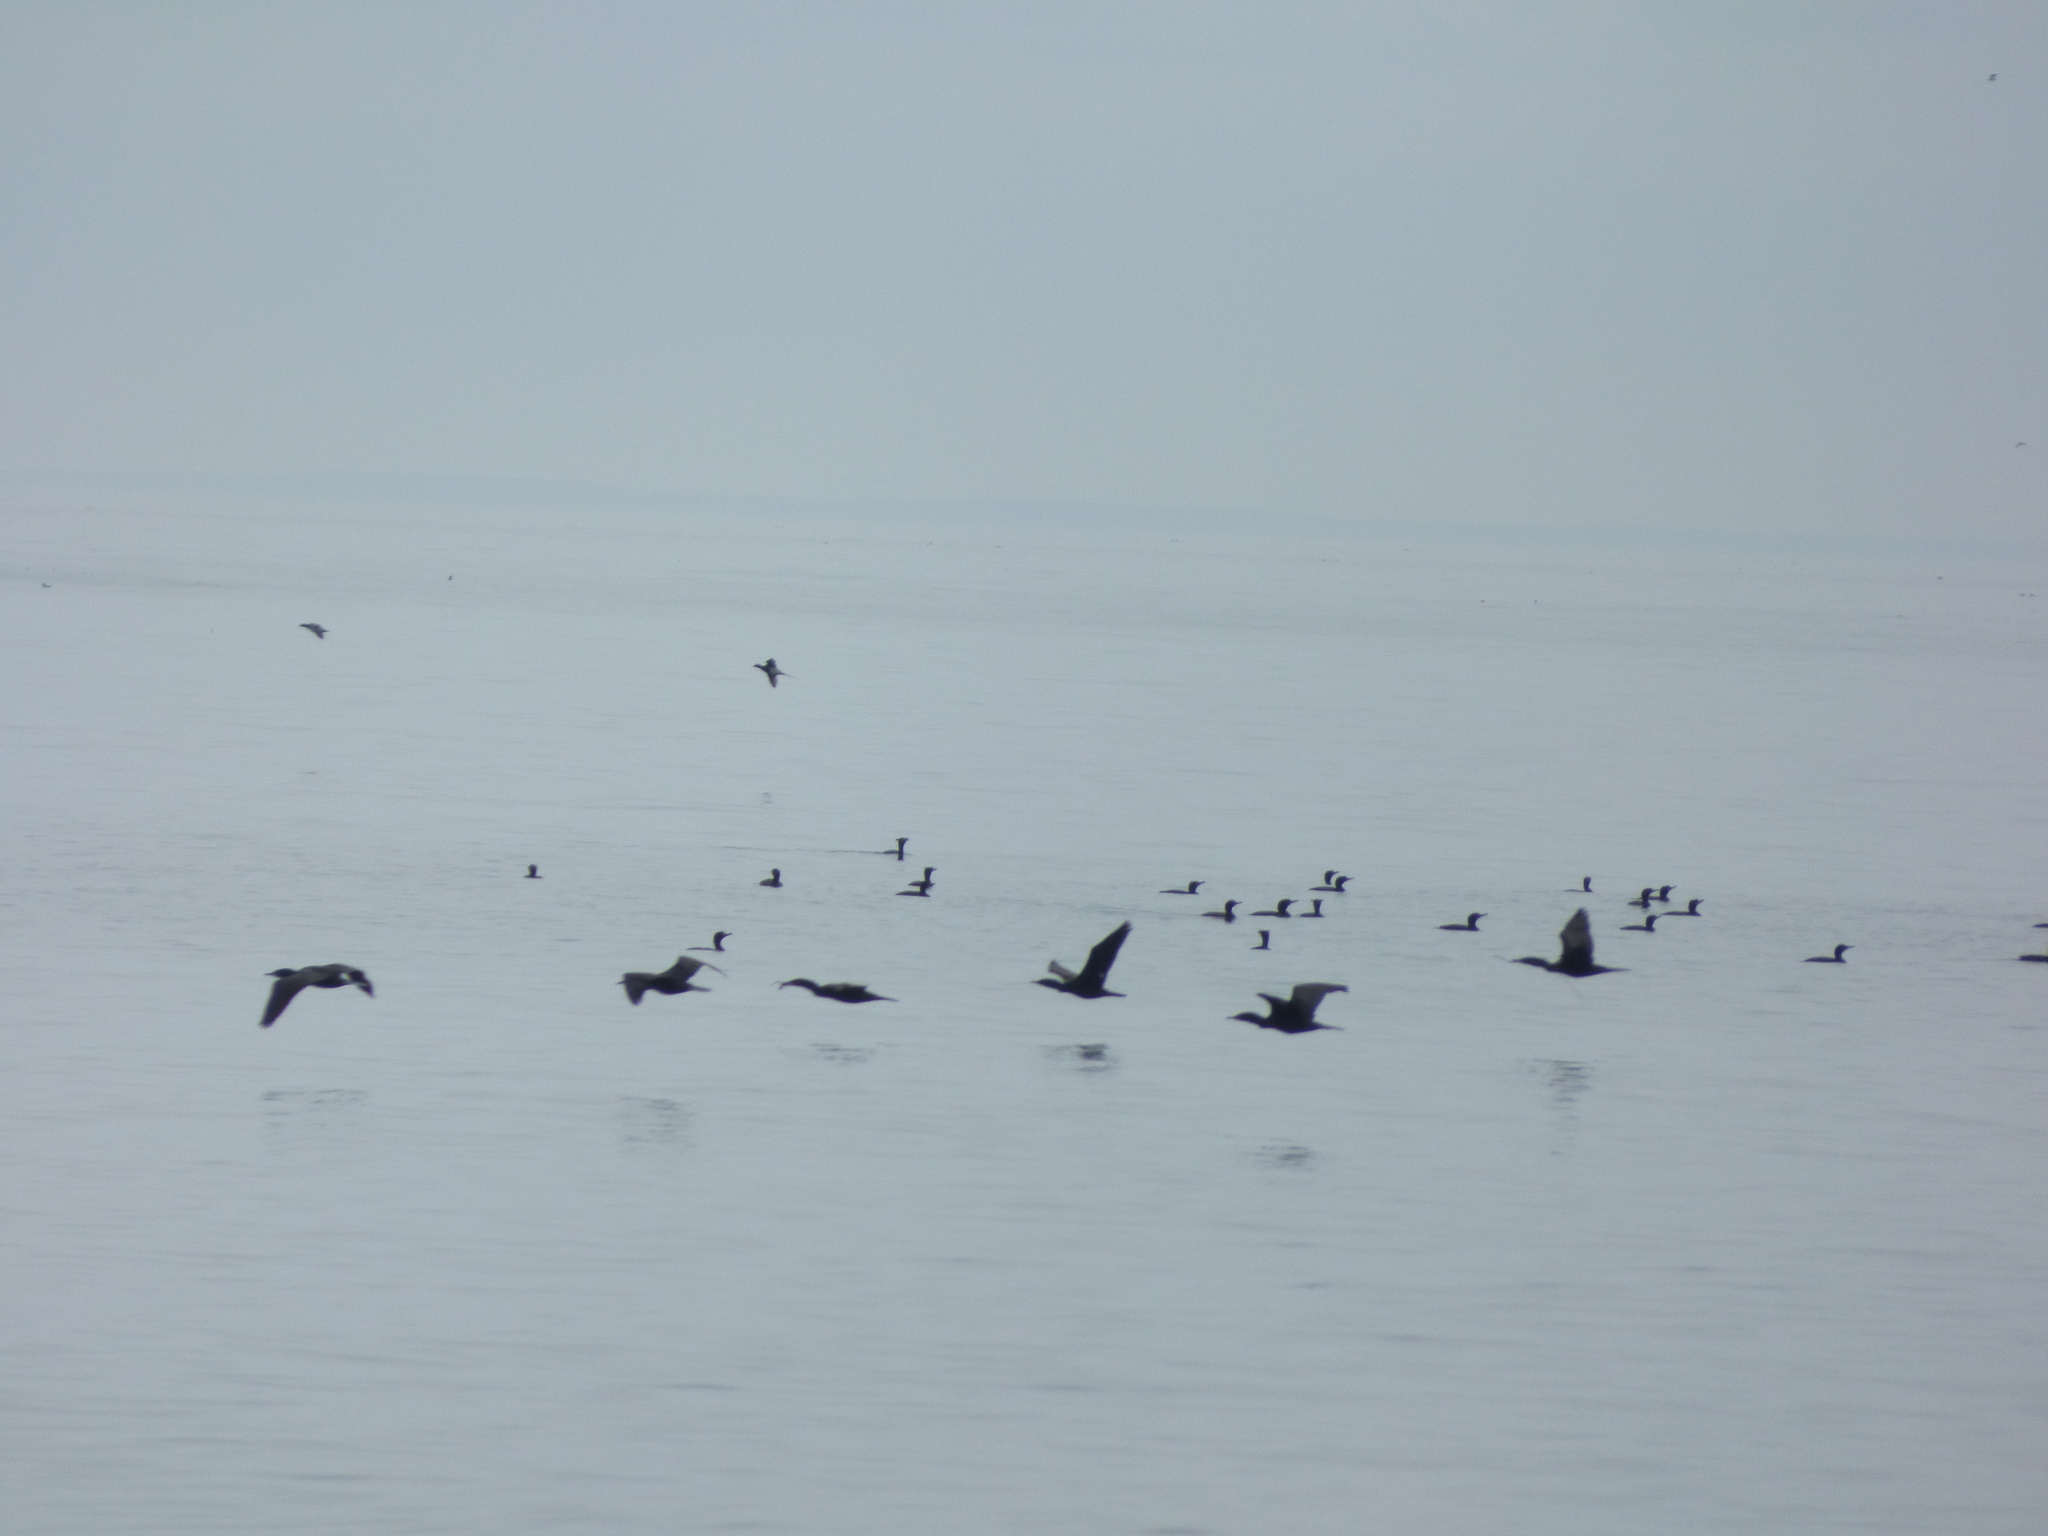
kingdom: Animalia
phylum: Chordata
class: Aves
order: Suliformes
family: Phalacrocoracidae
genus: Phalacrocorax
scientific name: Phalacrocorax auritus
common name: Double-crested cormorant
